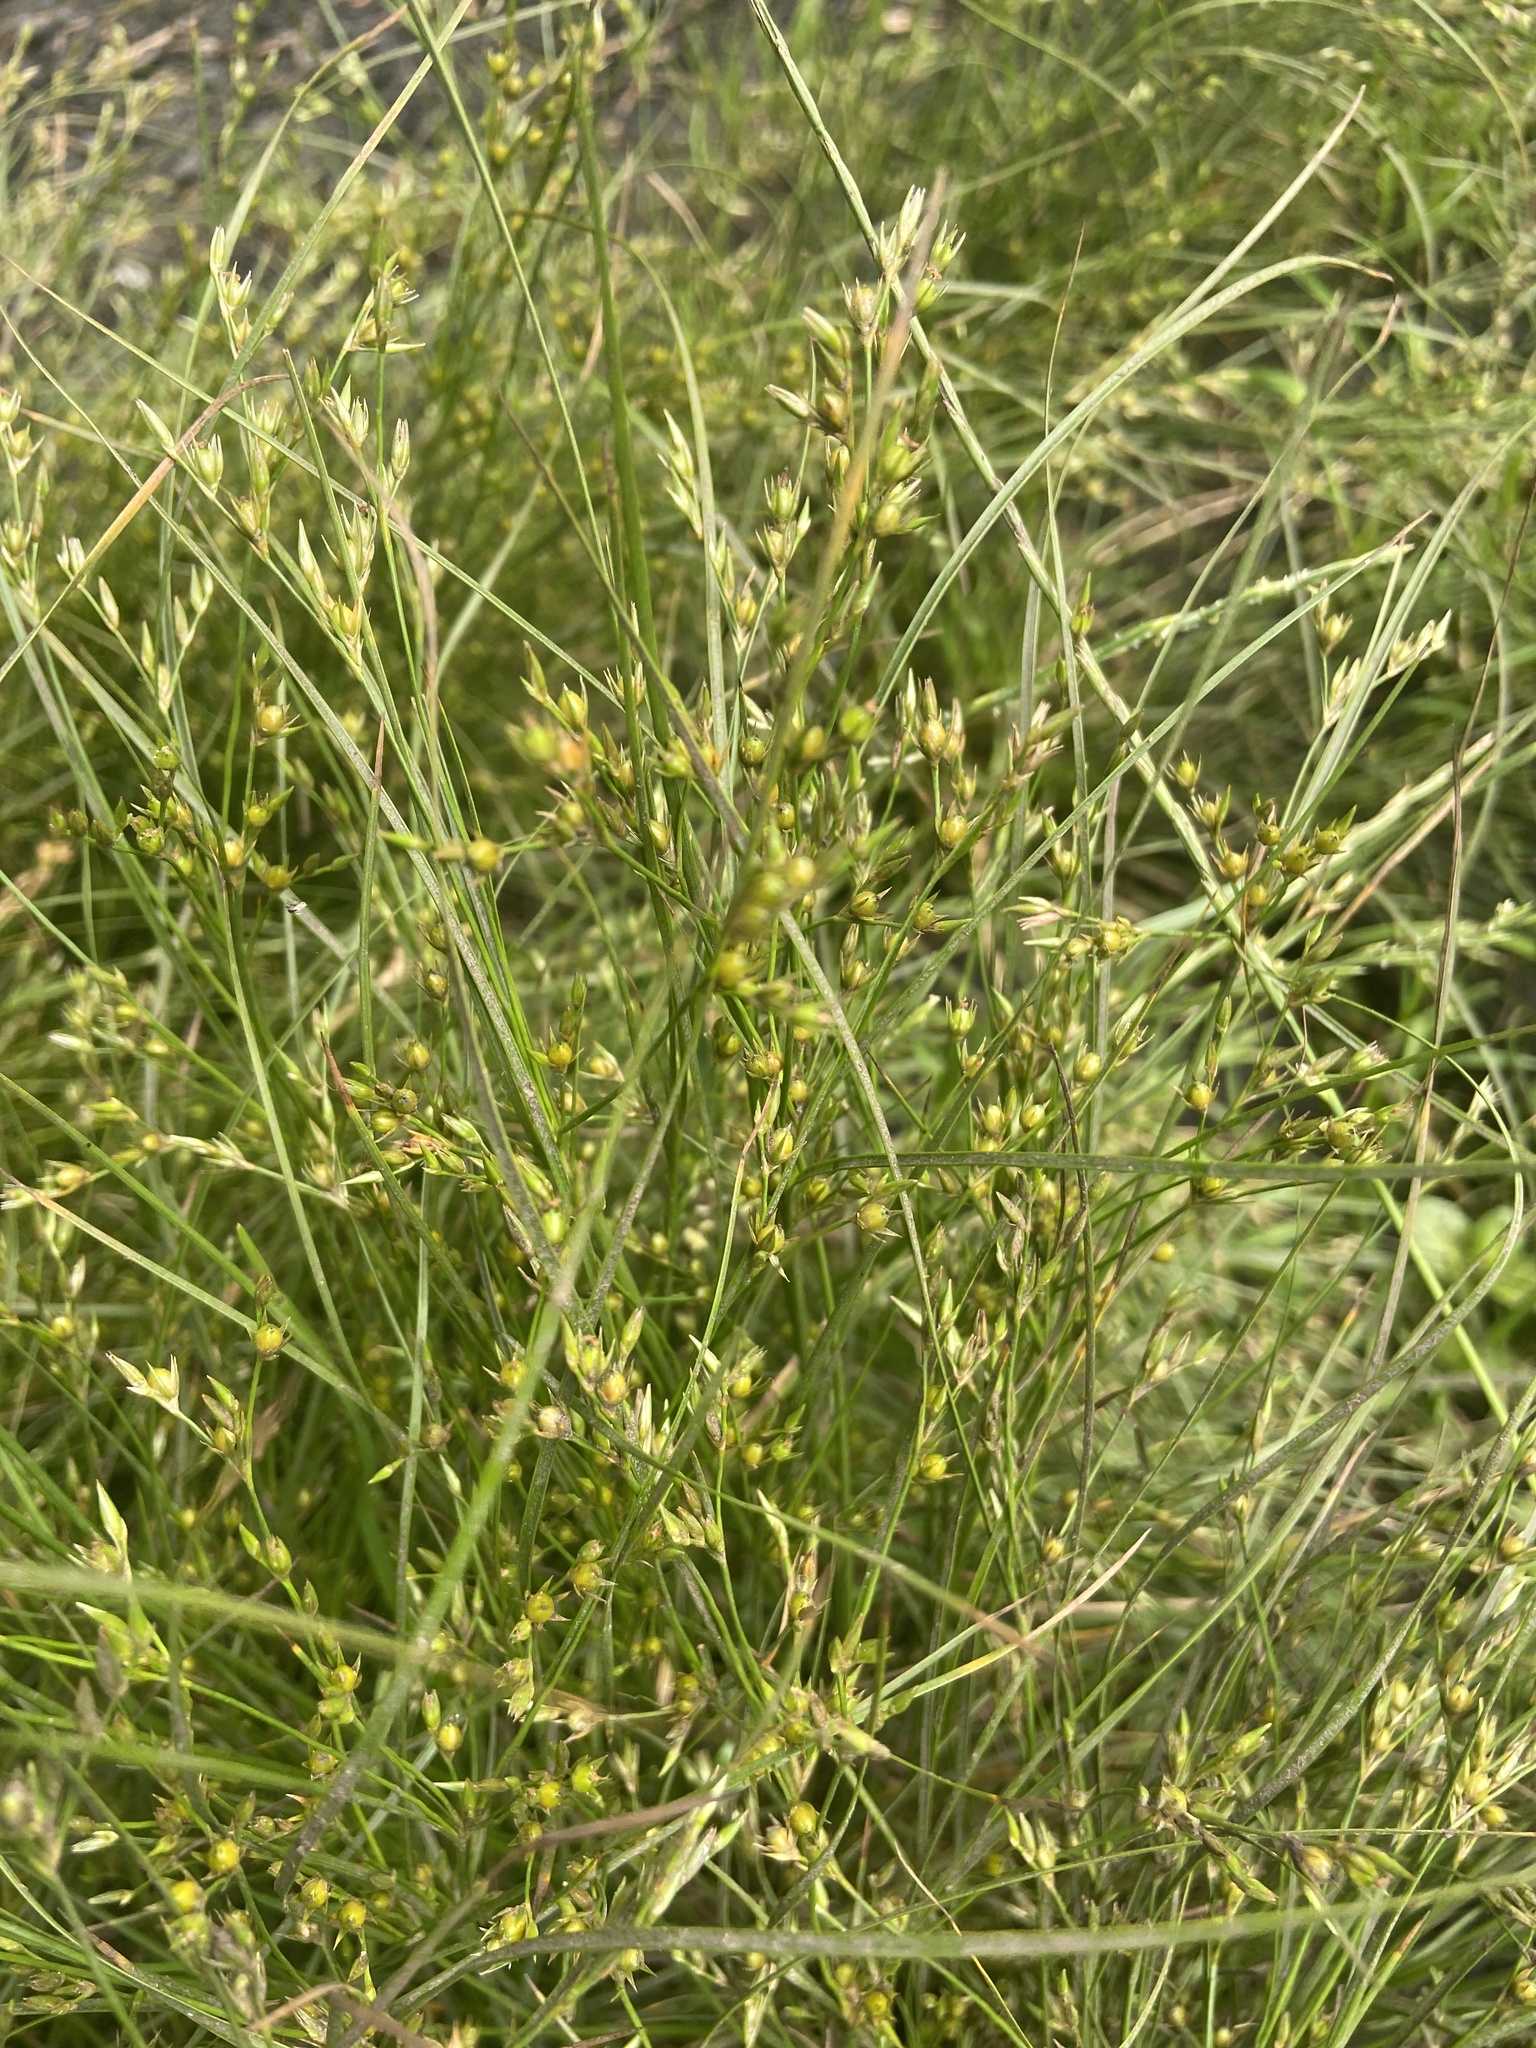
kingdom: Plantae
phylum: Tracheophyta
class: Liliopsida
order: Poales
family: Juncaceae
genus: Juncus
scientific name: Juncus tenuis
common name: Slender rush
